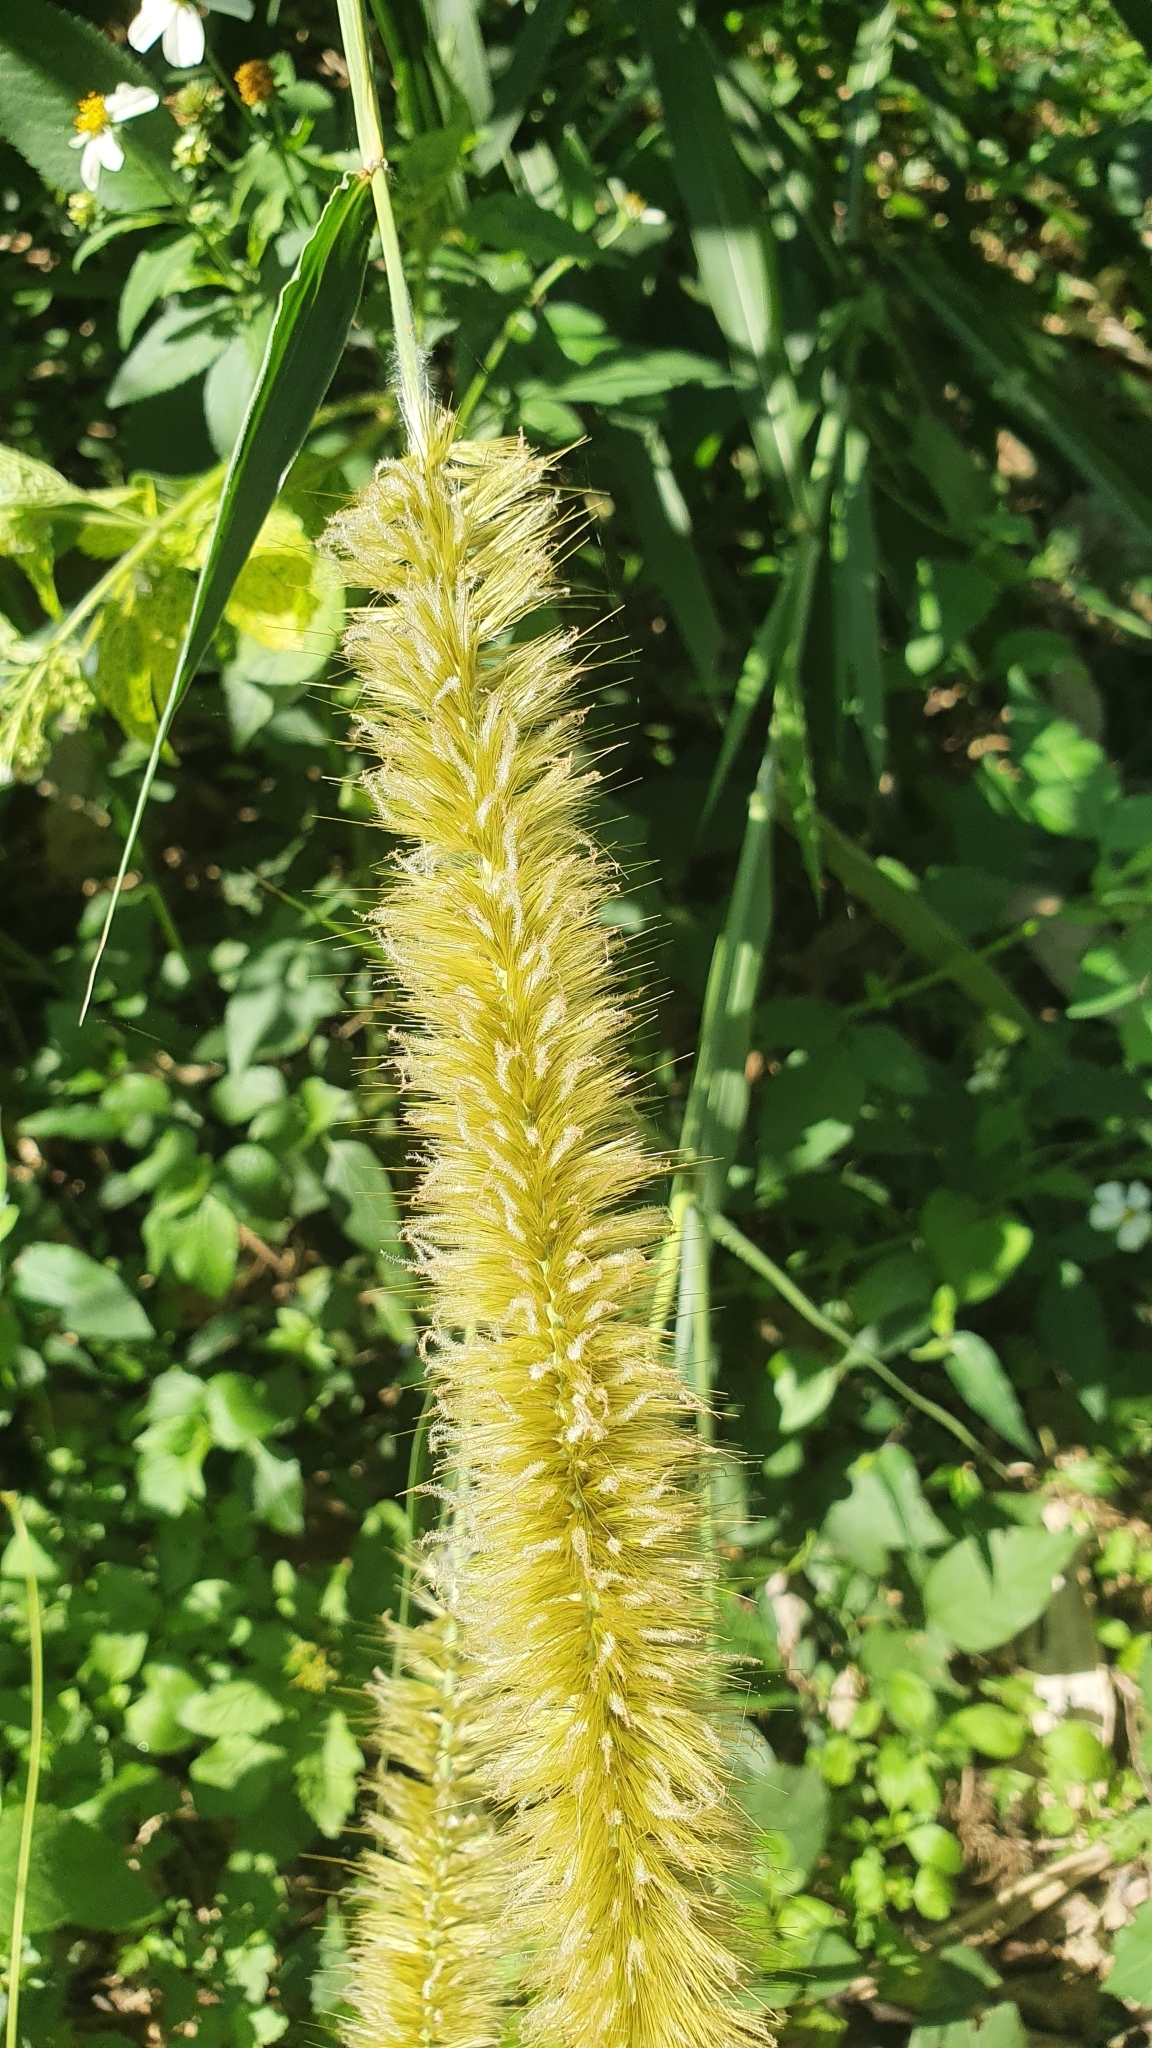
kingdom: Plantae
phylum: Tracheophyta
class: Liliopsida
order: Poales
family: Poaceae
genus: Cenchrus
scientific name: Cenchrus purpureus
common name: Elephant grass
